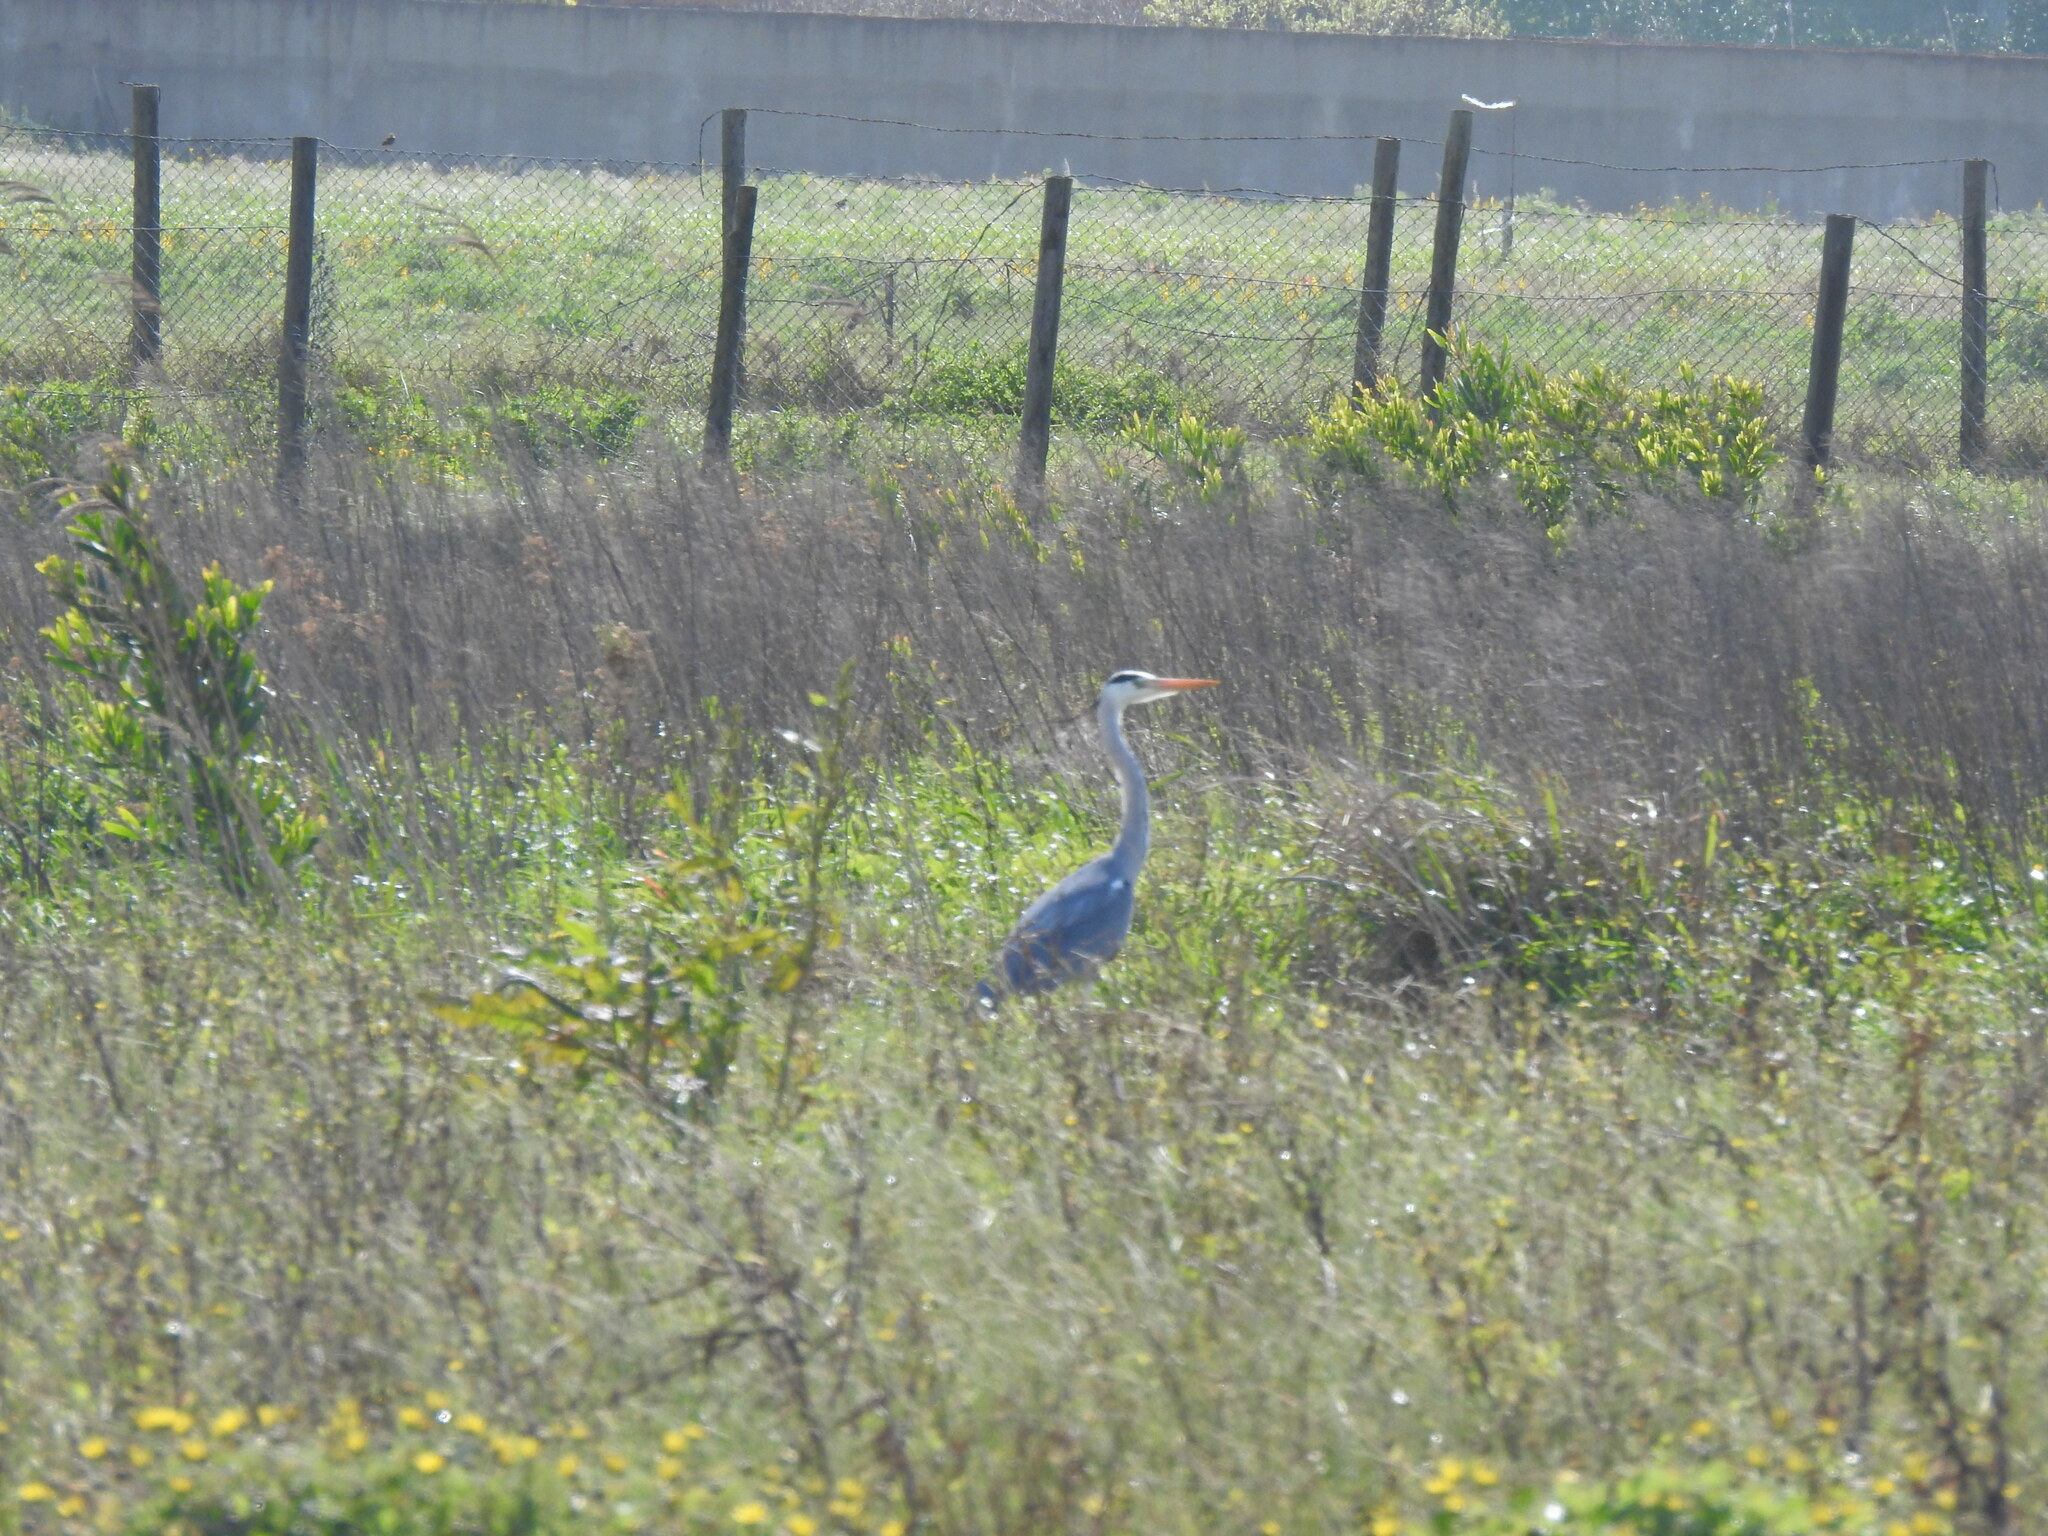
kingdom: Animalia
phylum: Chordata
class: Aves
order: Pelecaniformes
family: Ardeidae
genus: Ardea
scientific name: Ardea cinerea
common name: Grey heron
